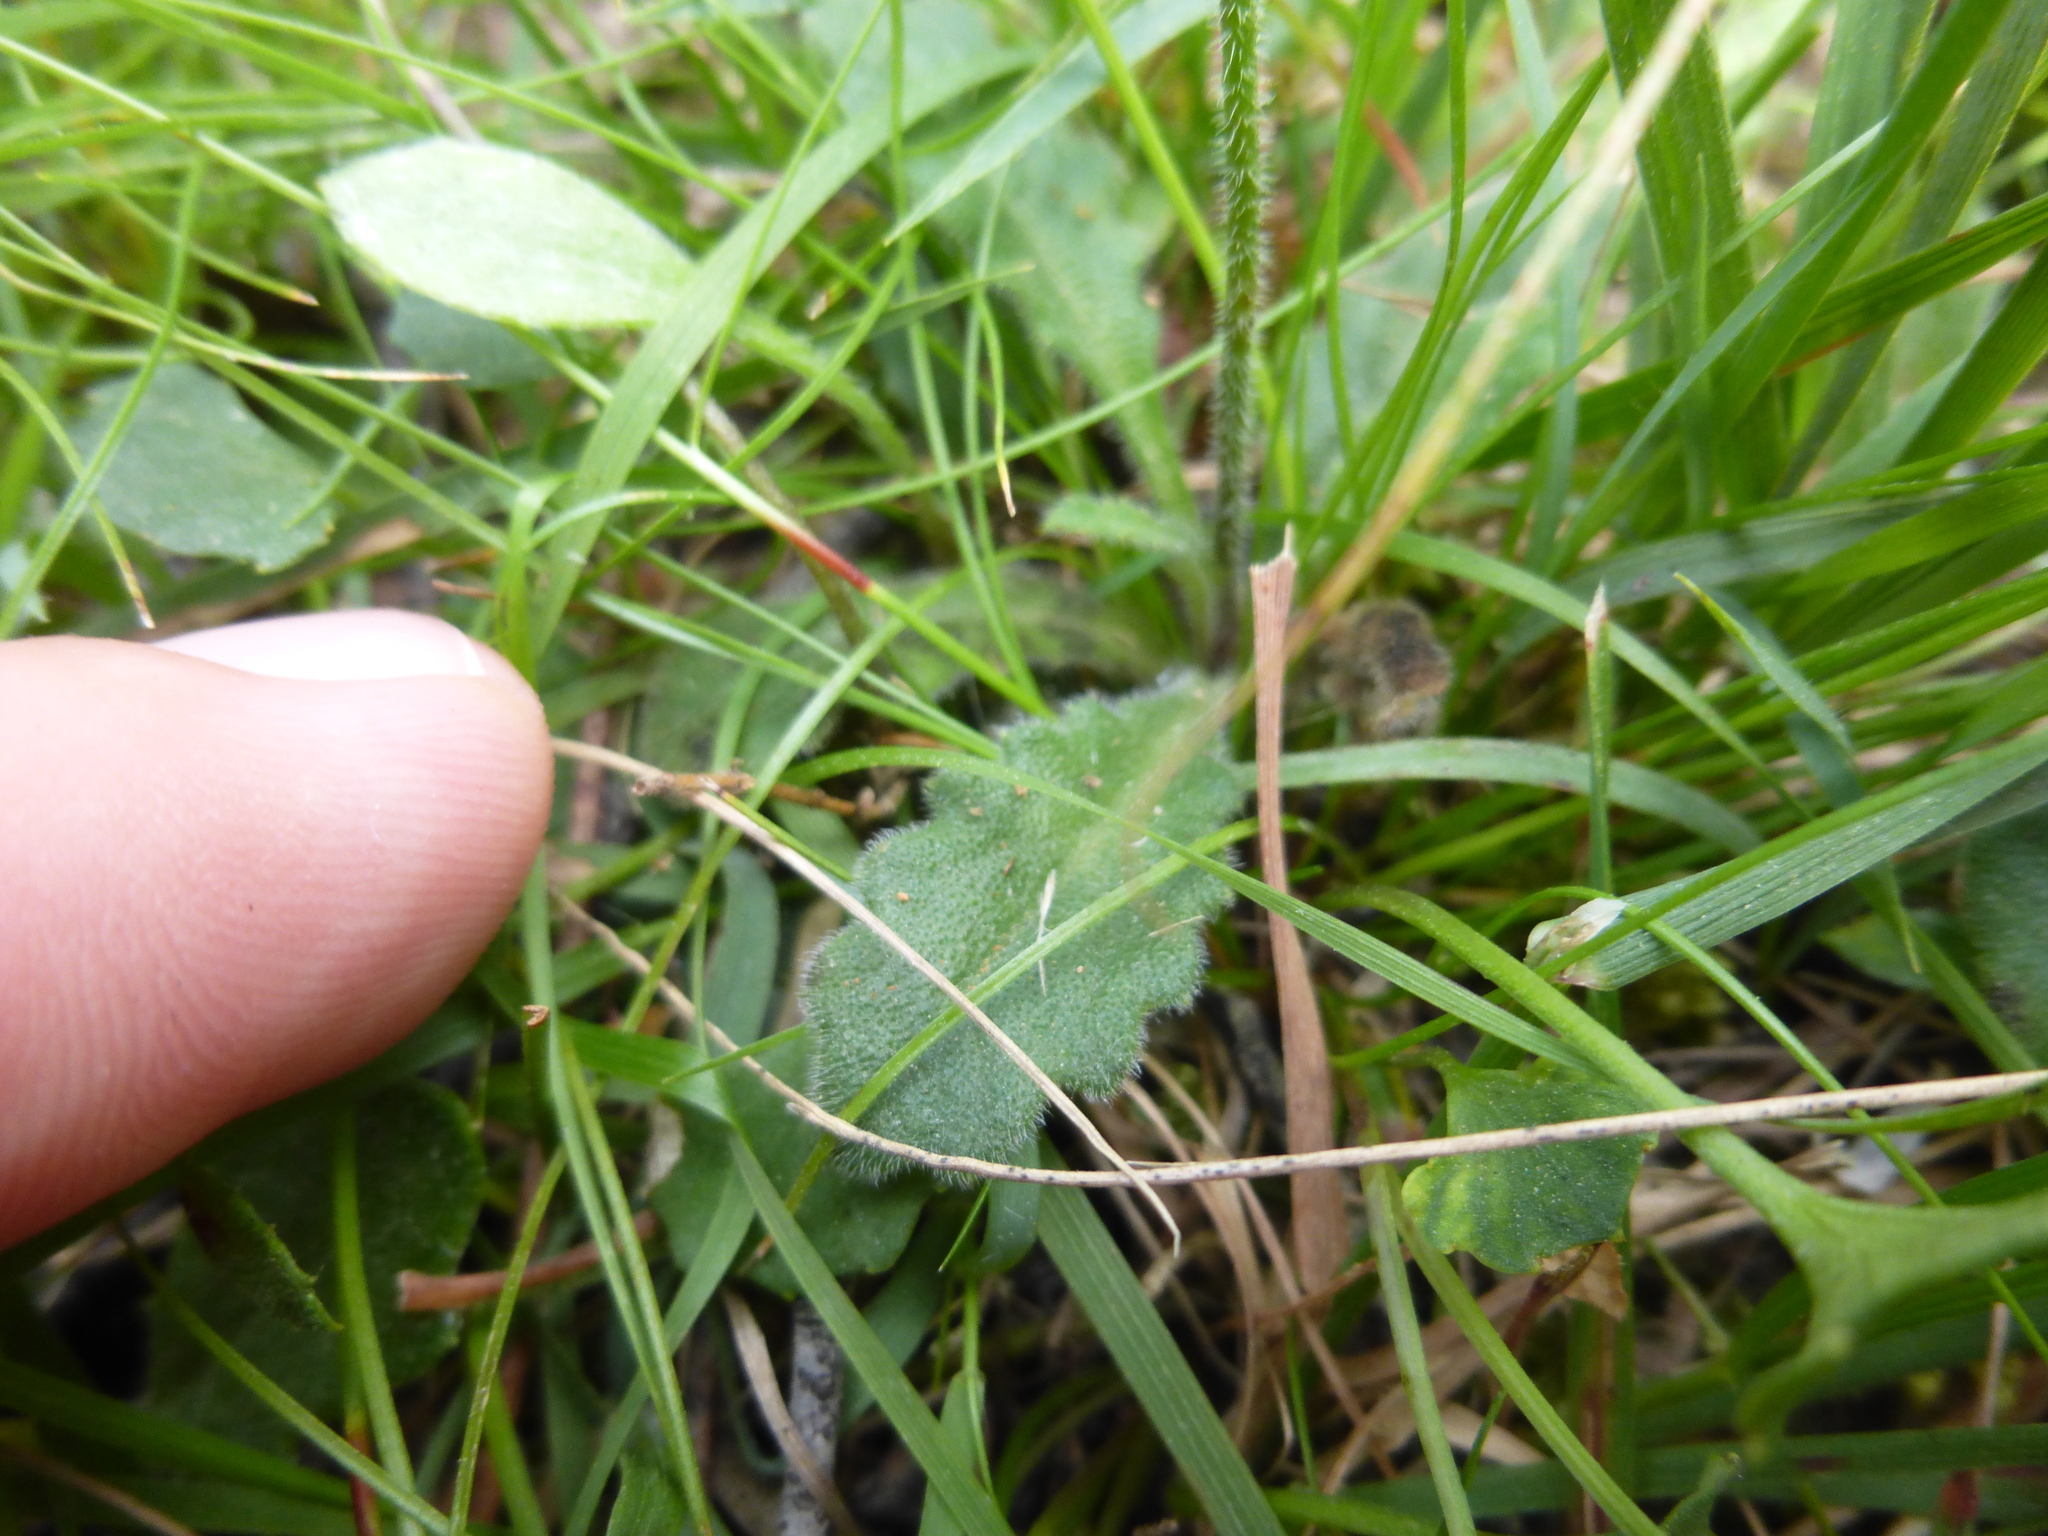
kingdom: Plantae
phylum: Tracheophyta
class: Magnoliopsida
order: Asterales
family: Asteraceae
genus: Lagenophora
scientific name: Lagenophora stipitata
